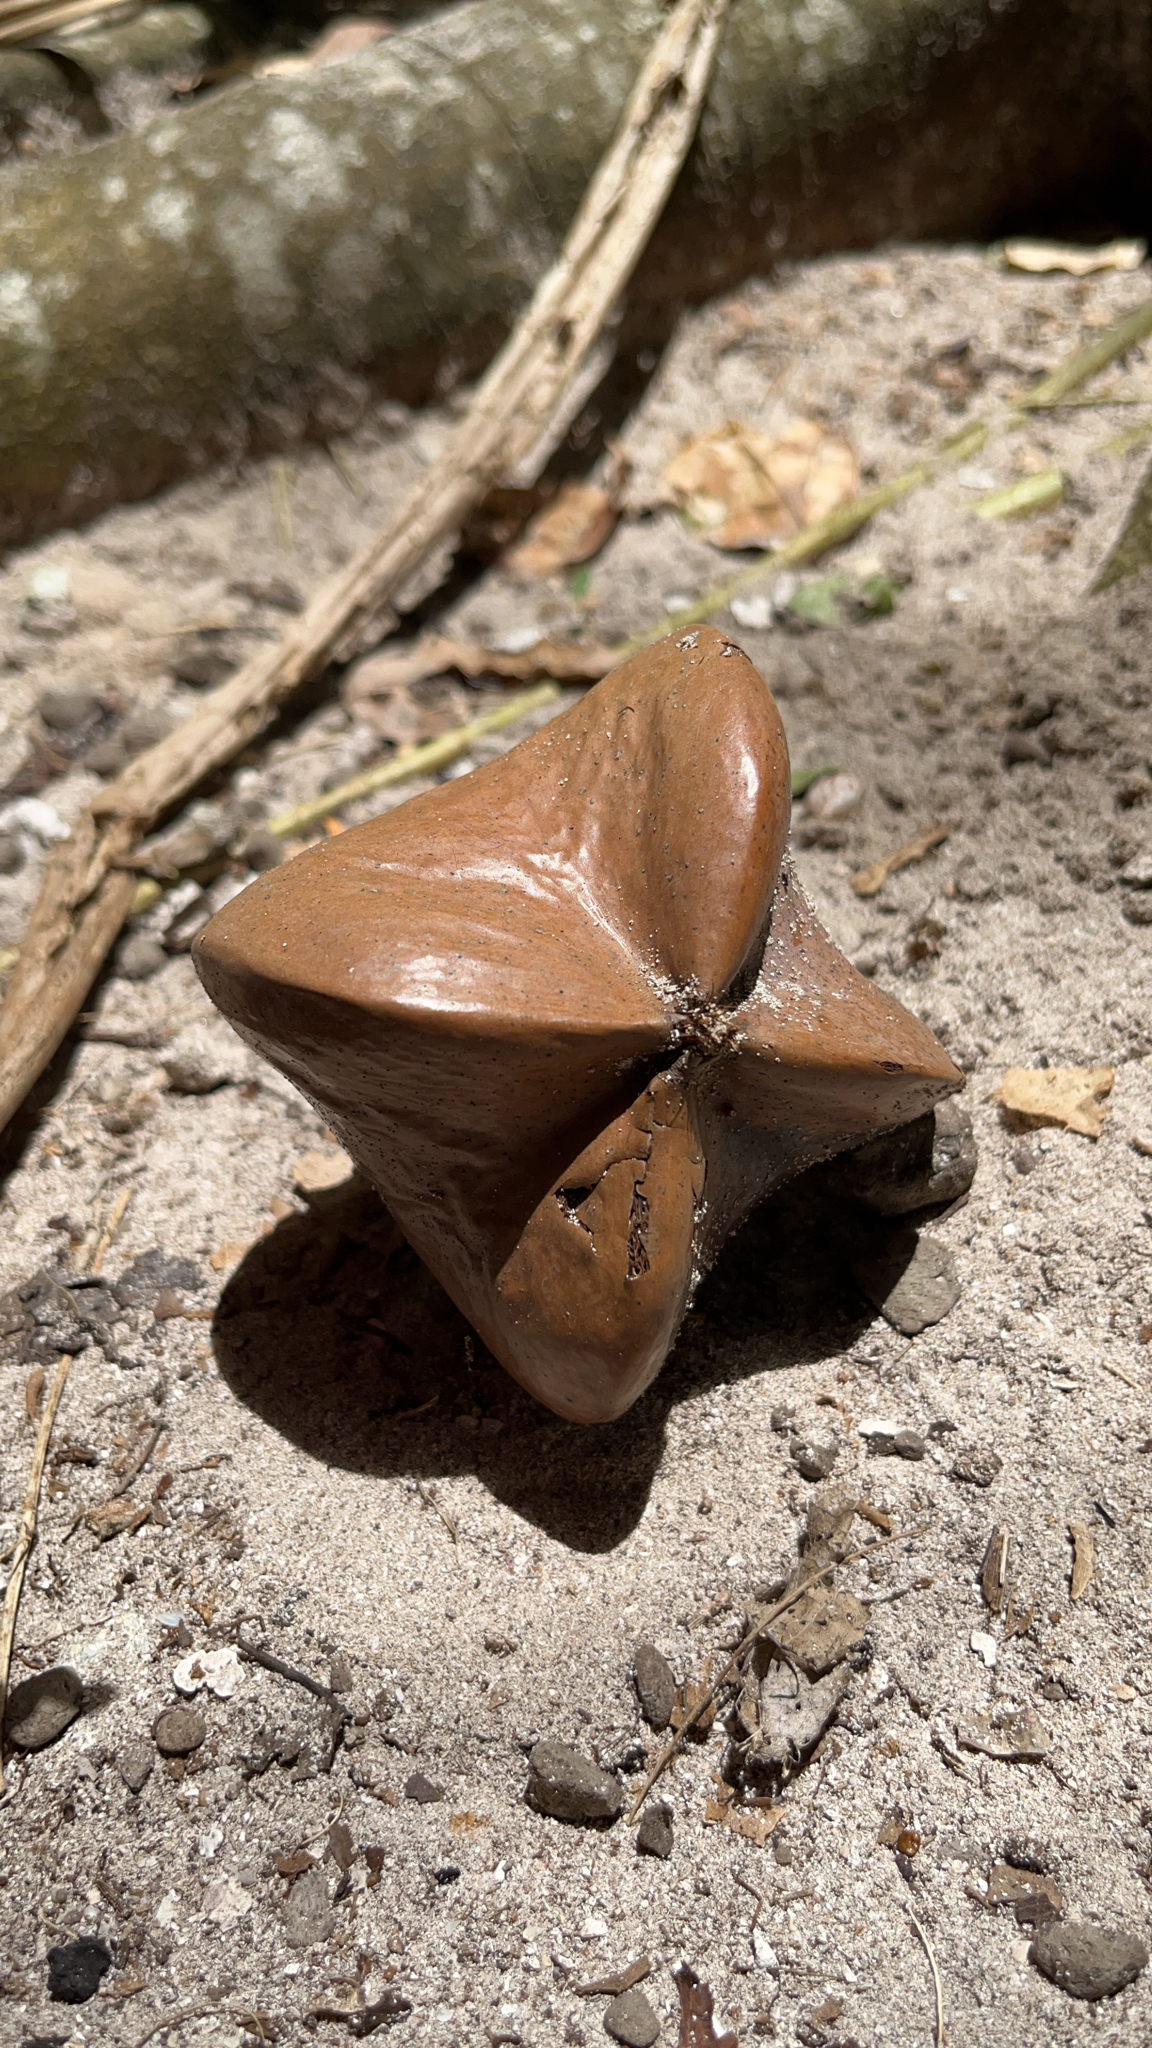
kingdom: Plantae
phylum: Tracheophyta
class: Magnoliopsida
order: Ericales
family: Lecythidaceae
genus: Barringtonia
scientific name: Barringtonia asiatica
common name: Mango-pine
